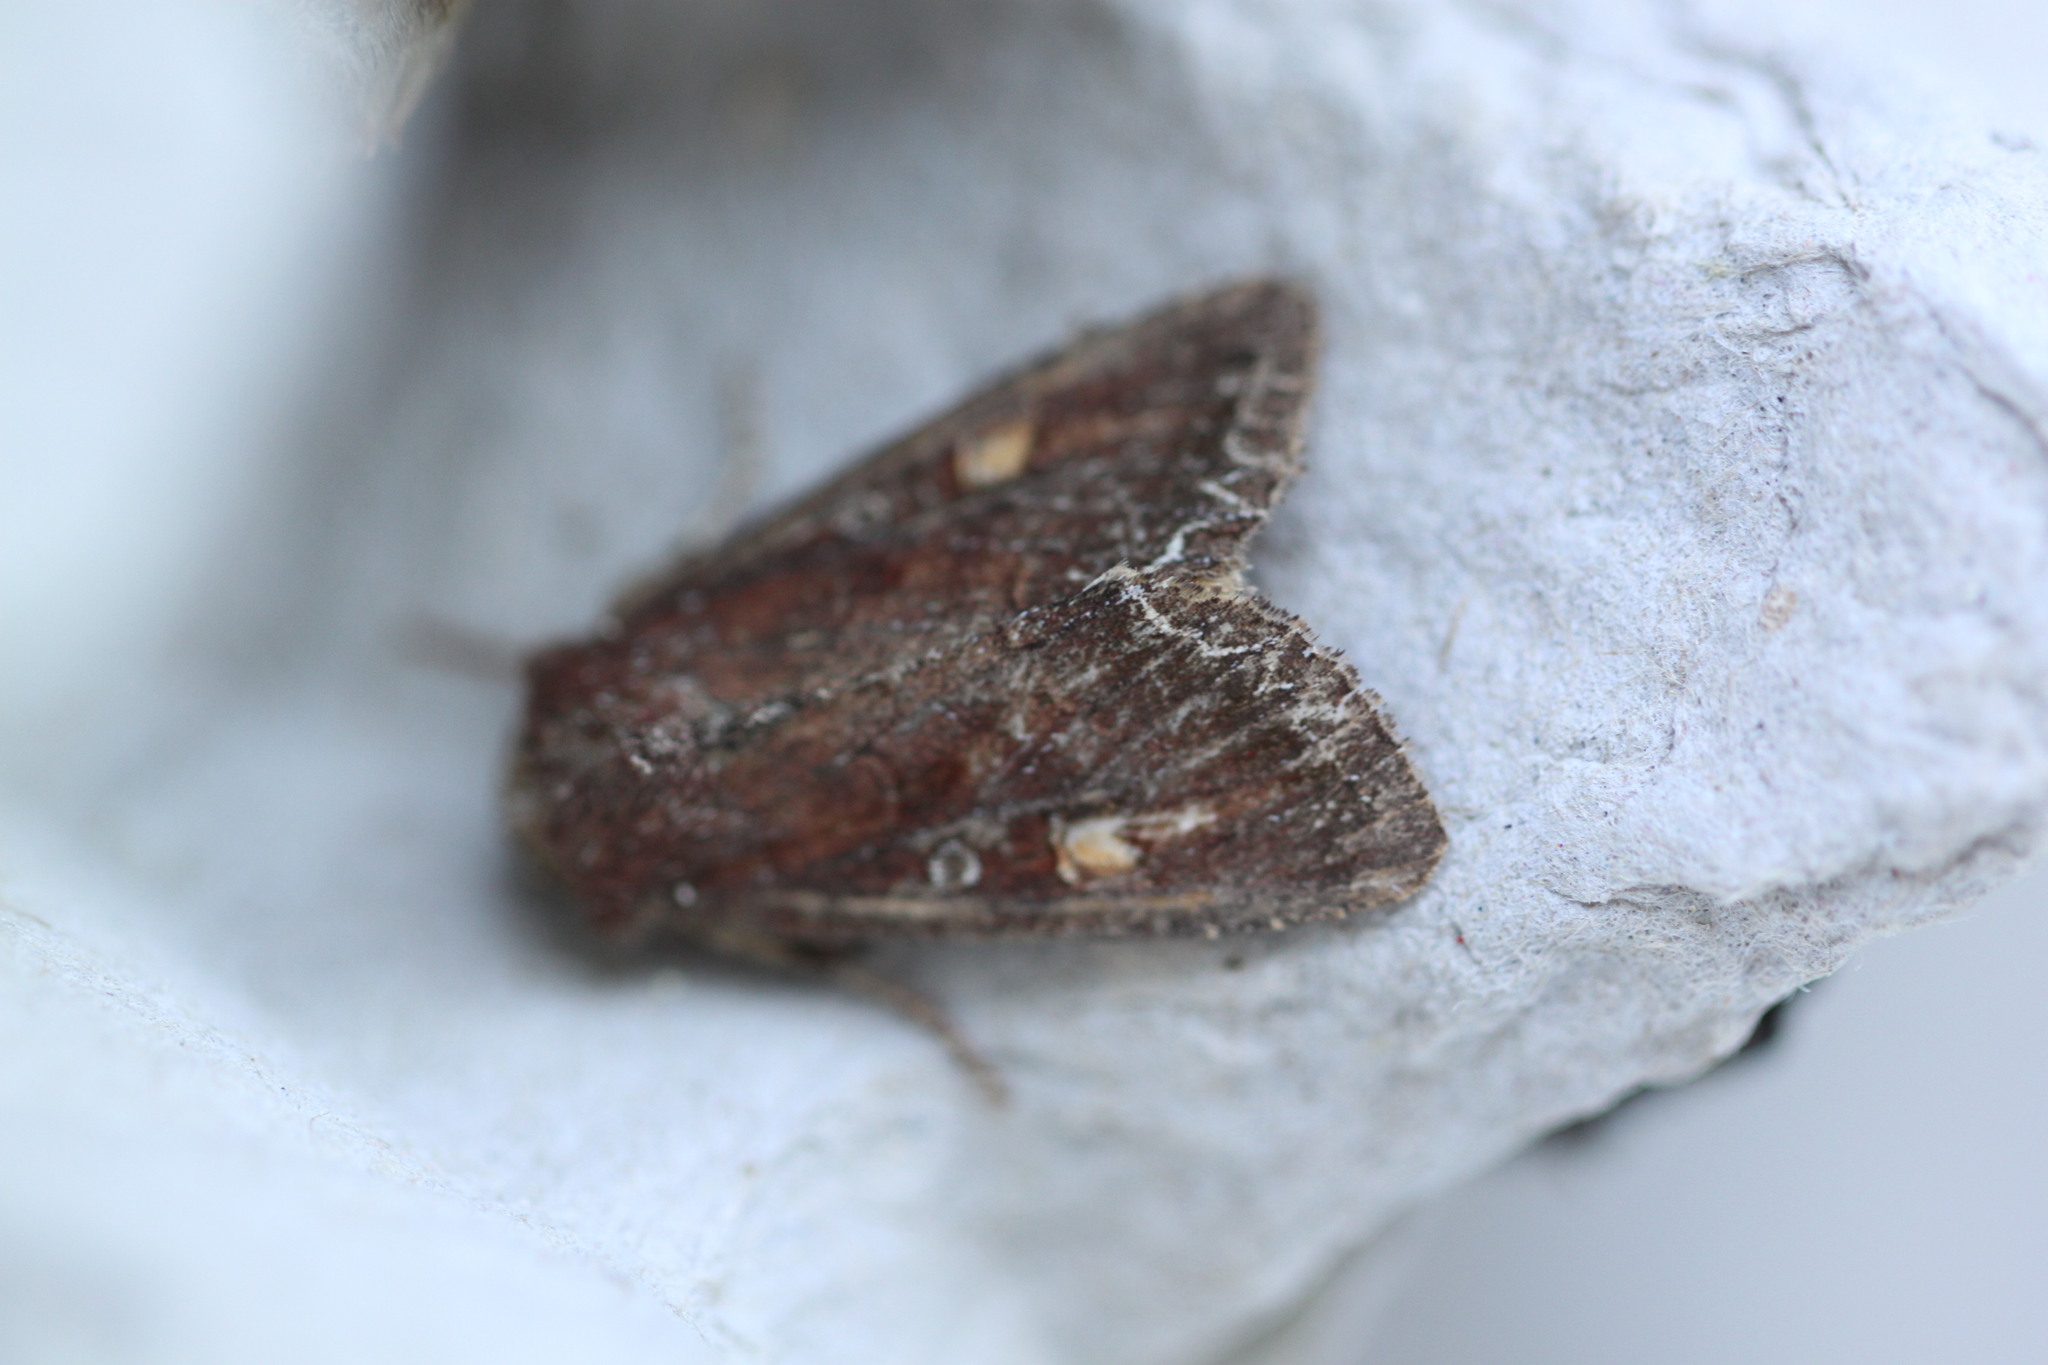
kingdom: Animalia
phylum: Arthropoda
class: Insecta
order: Lepidoptera
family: Noctuidae
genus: Lacanobia
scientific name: Lacanobia oleracea
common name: Bright-line brown-eye
